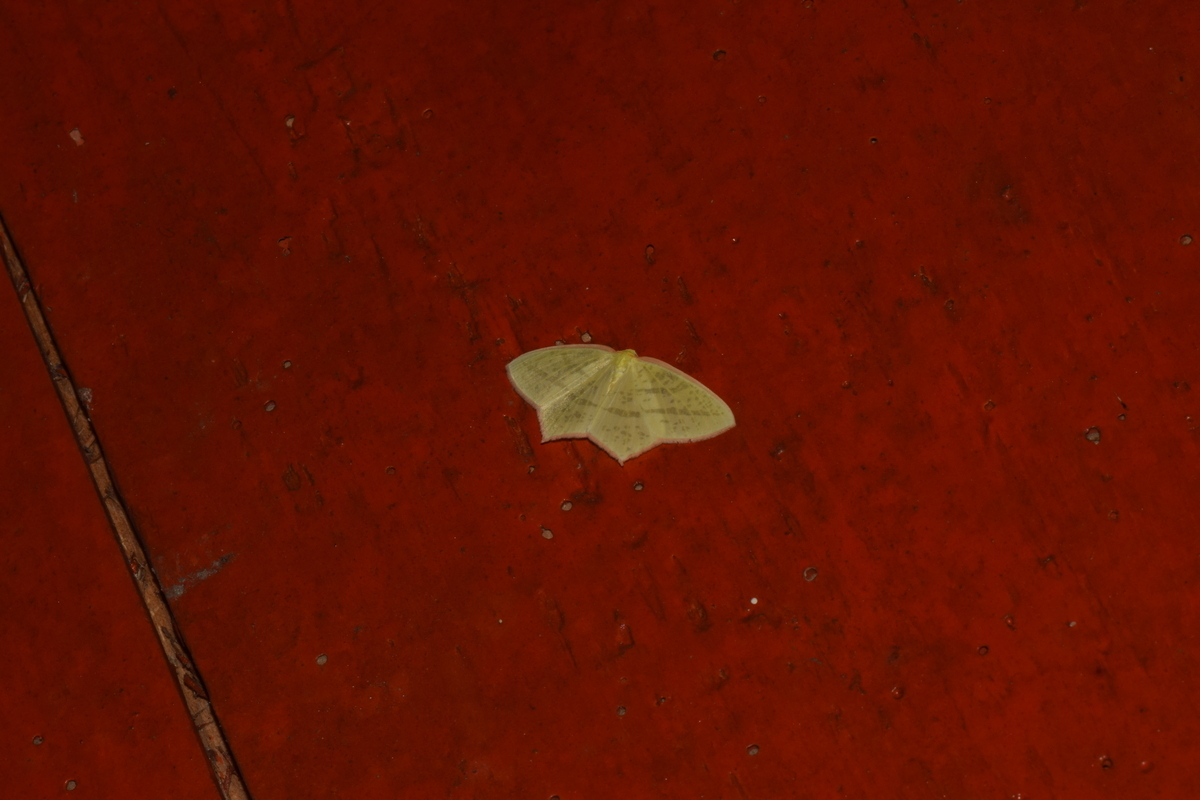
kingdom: Animalia
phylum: Arthropoda
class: Insecta
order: Lepidoptera
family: Geometridae
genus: Sirinopteryx
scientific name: Sirinopteryx rufivinctata
